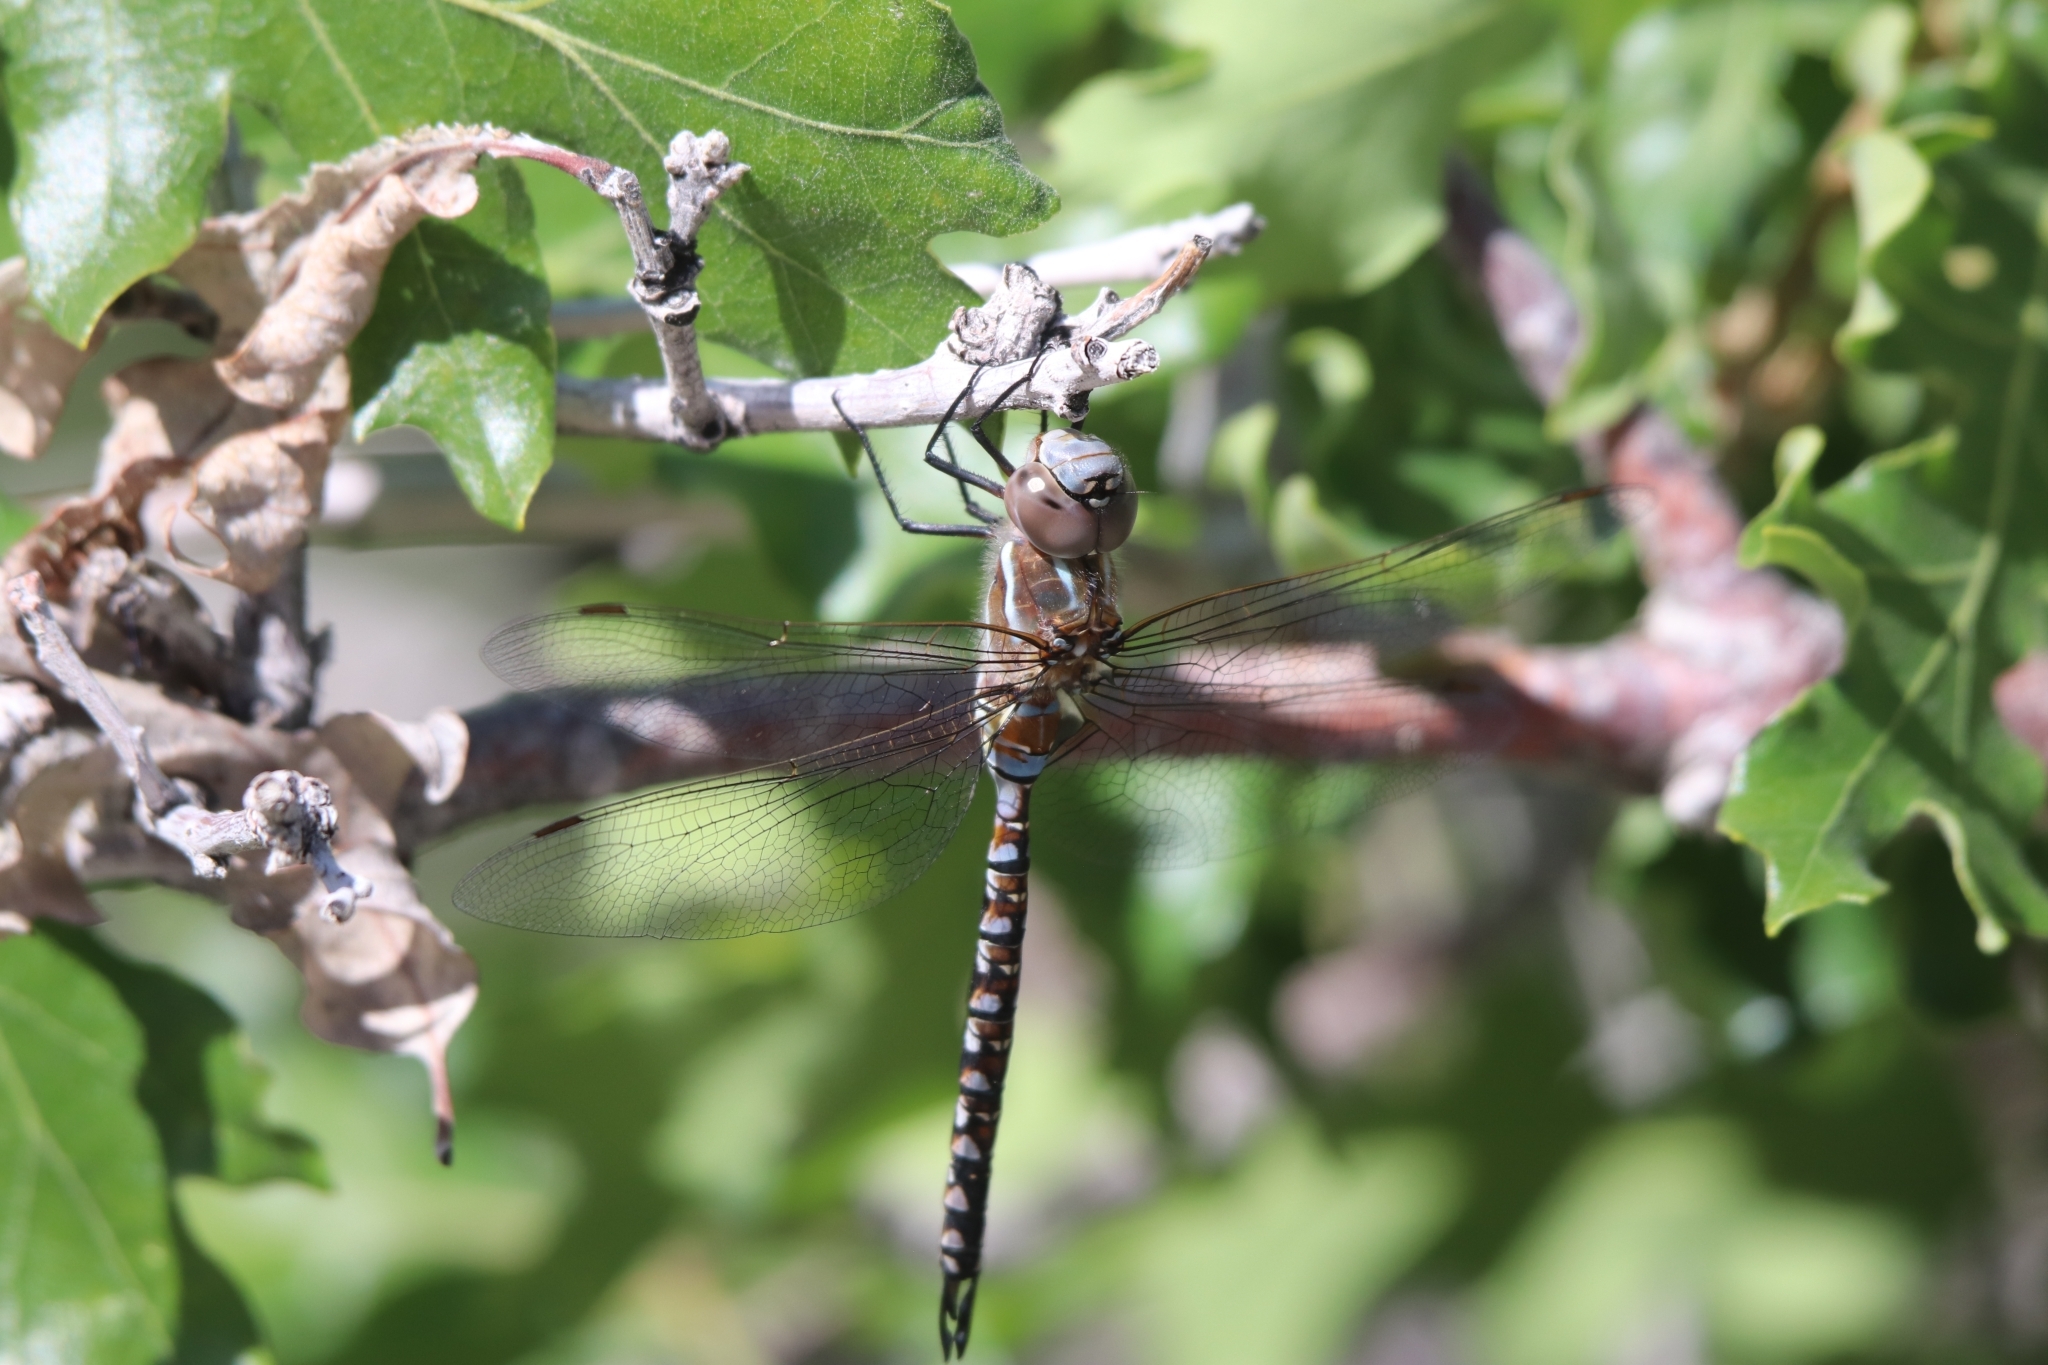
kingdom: Animalia
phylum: Arthropoda
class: Insecta
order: Odonata
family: Aeshnidae
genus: Rhionaeschna
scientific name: Rhionaeschna multicolor
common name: Blue-eyed darner
